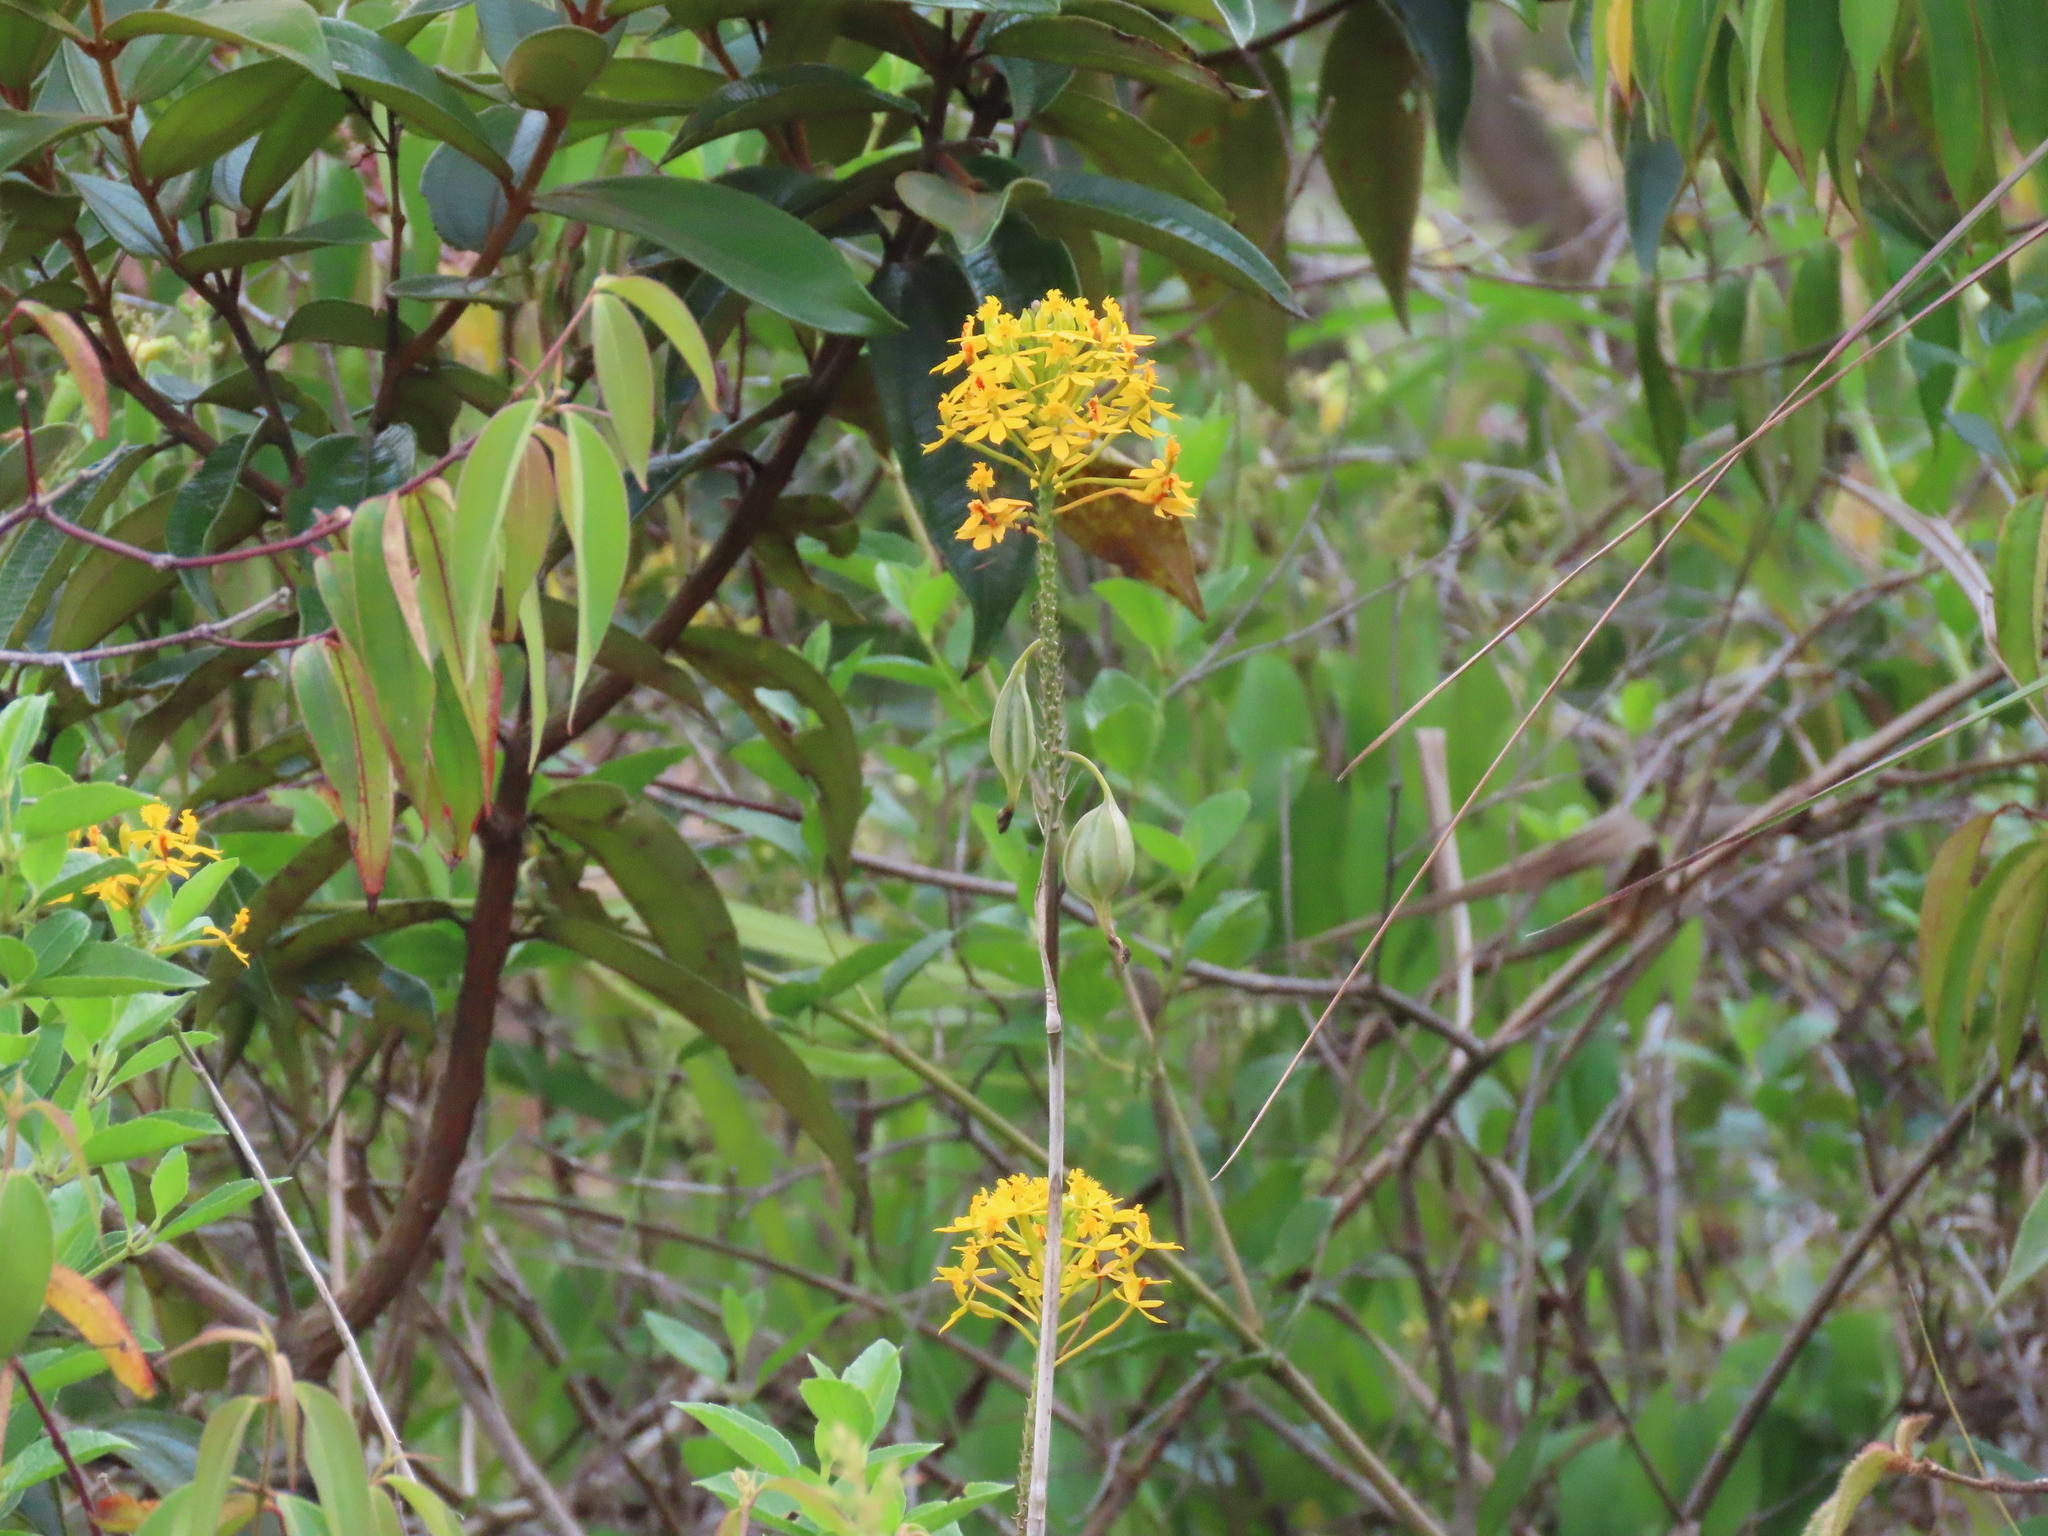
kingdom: Plantae
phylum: Tracheophyta
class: Liliopsida
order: Asparagales
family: Orchidaceae
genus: Epidendrum
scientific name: Epidendrum melinanthum
